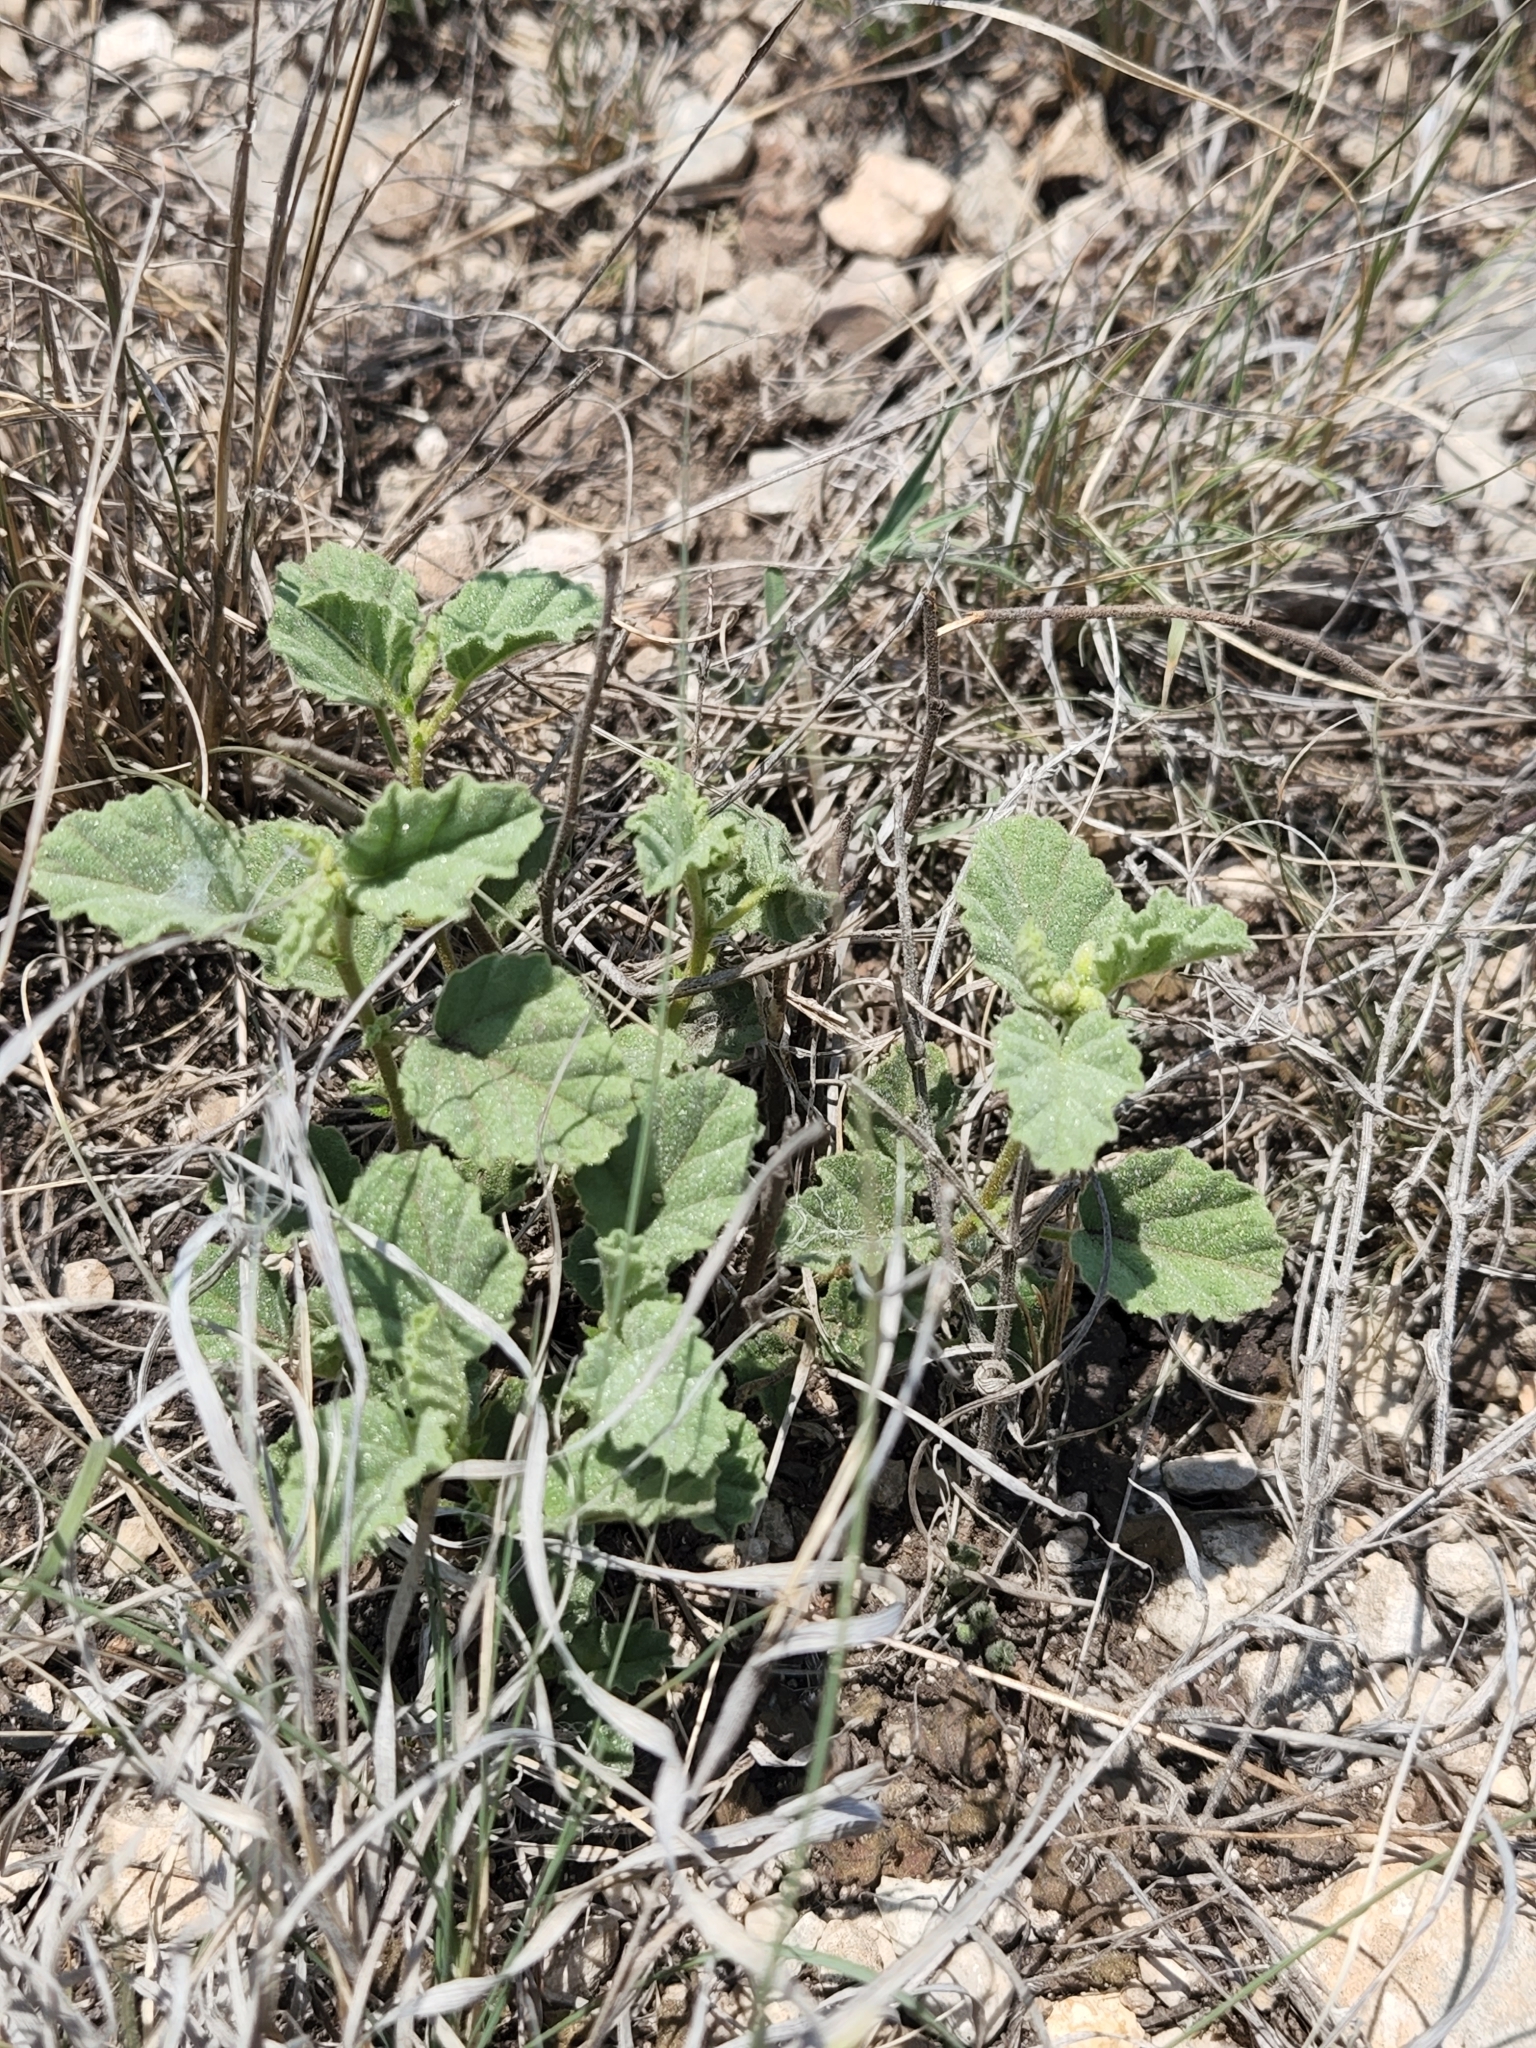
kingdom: Plantae
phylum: Tracheophyta
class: Magnoliopsida
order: Malvales
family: Malvaceae
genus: Hermannia
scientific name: Hermannia texana
